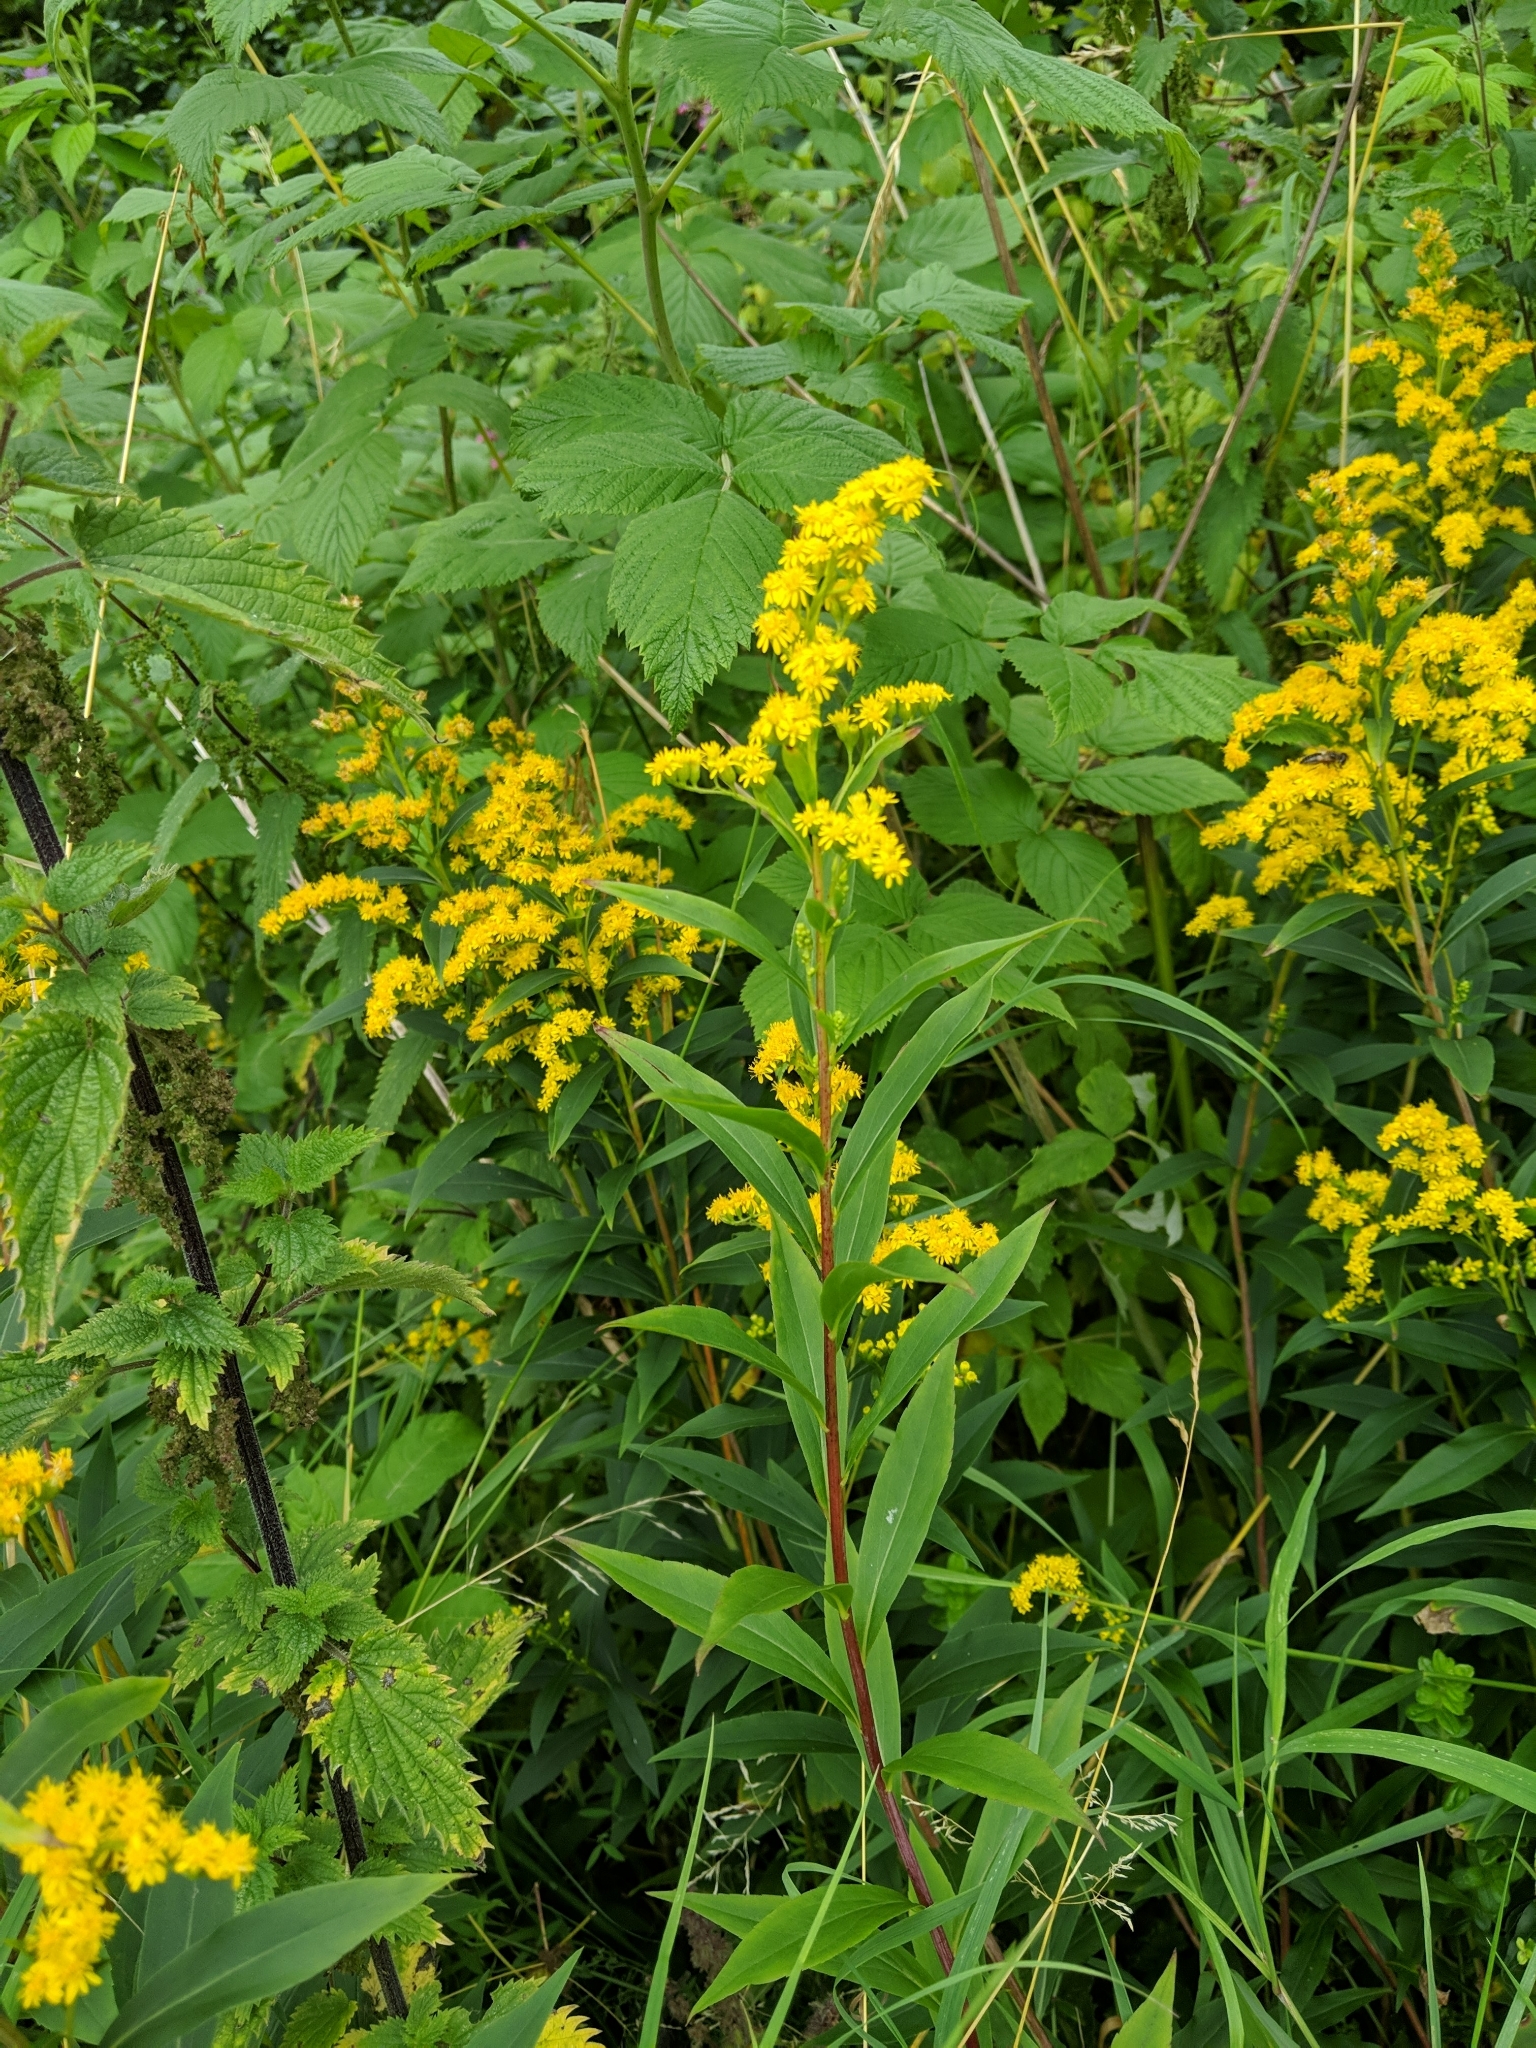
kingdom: Plantae
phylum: Tracheophyta
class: Magnoliopsida
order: Asterales
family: Asteraceae
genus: Solidago
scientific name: Solidago canadensis
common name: Canada goldenrod
